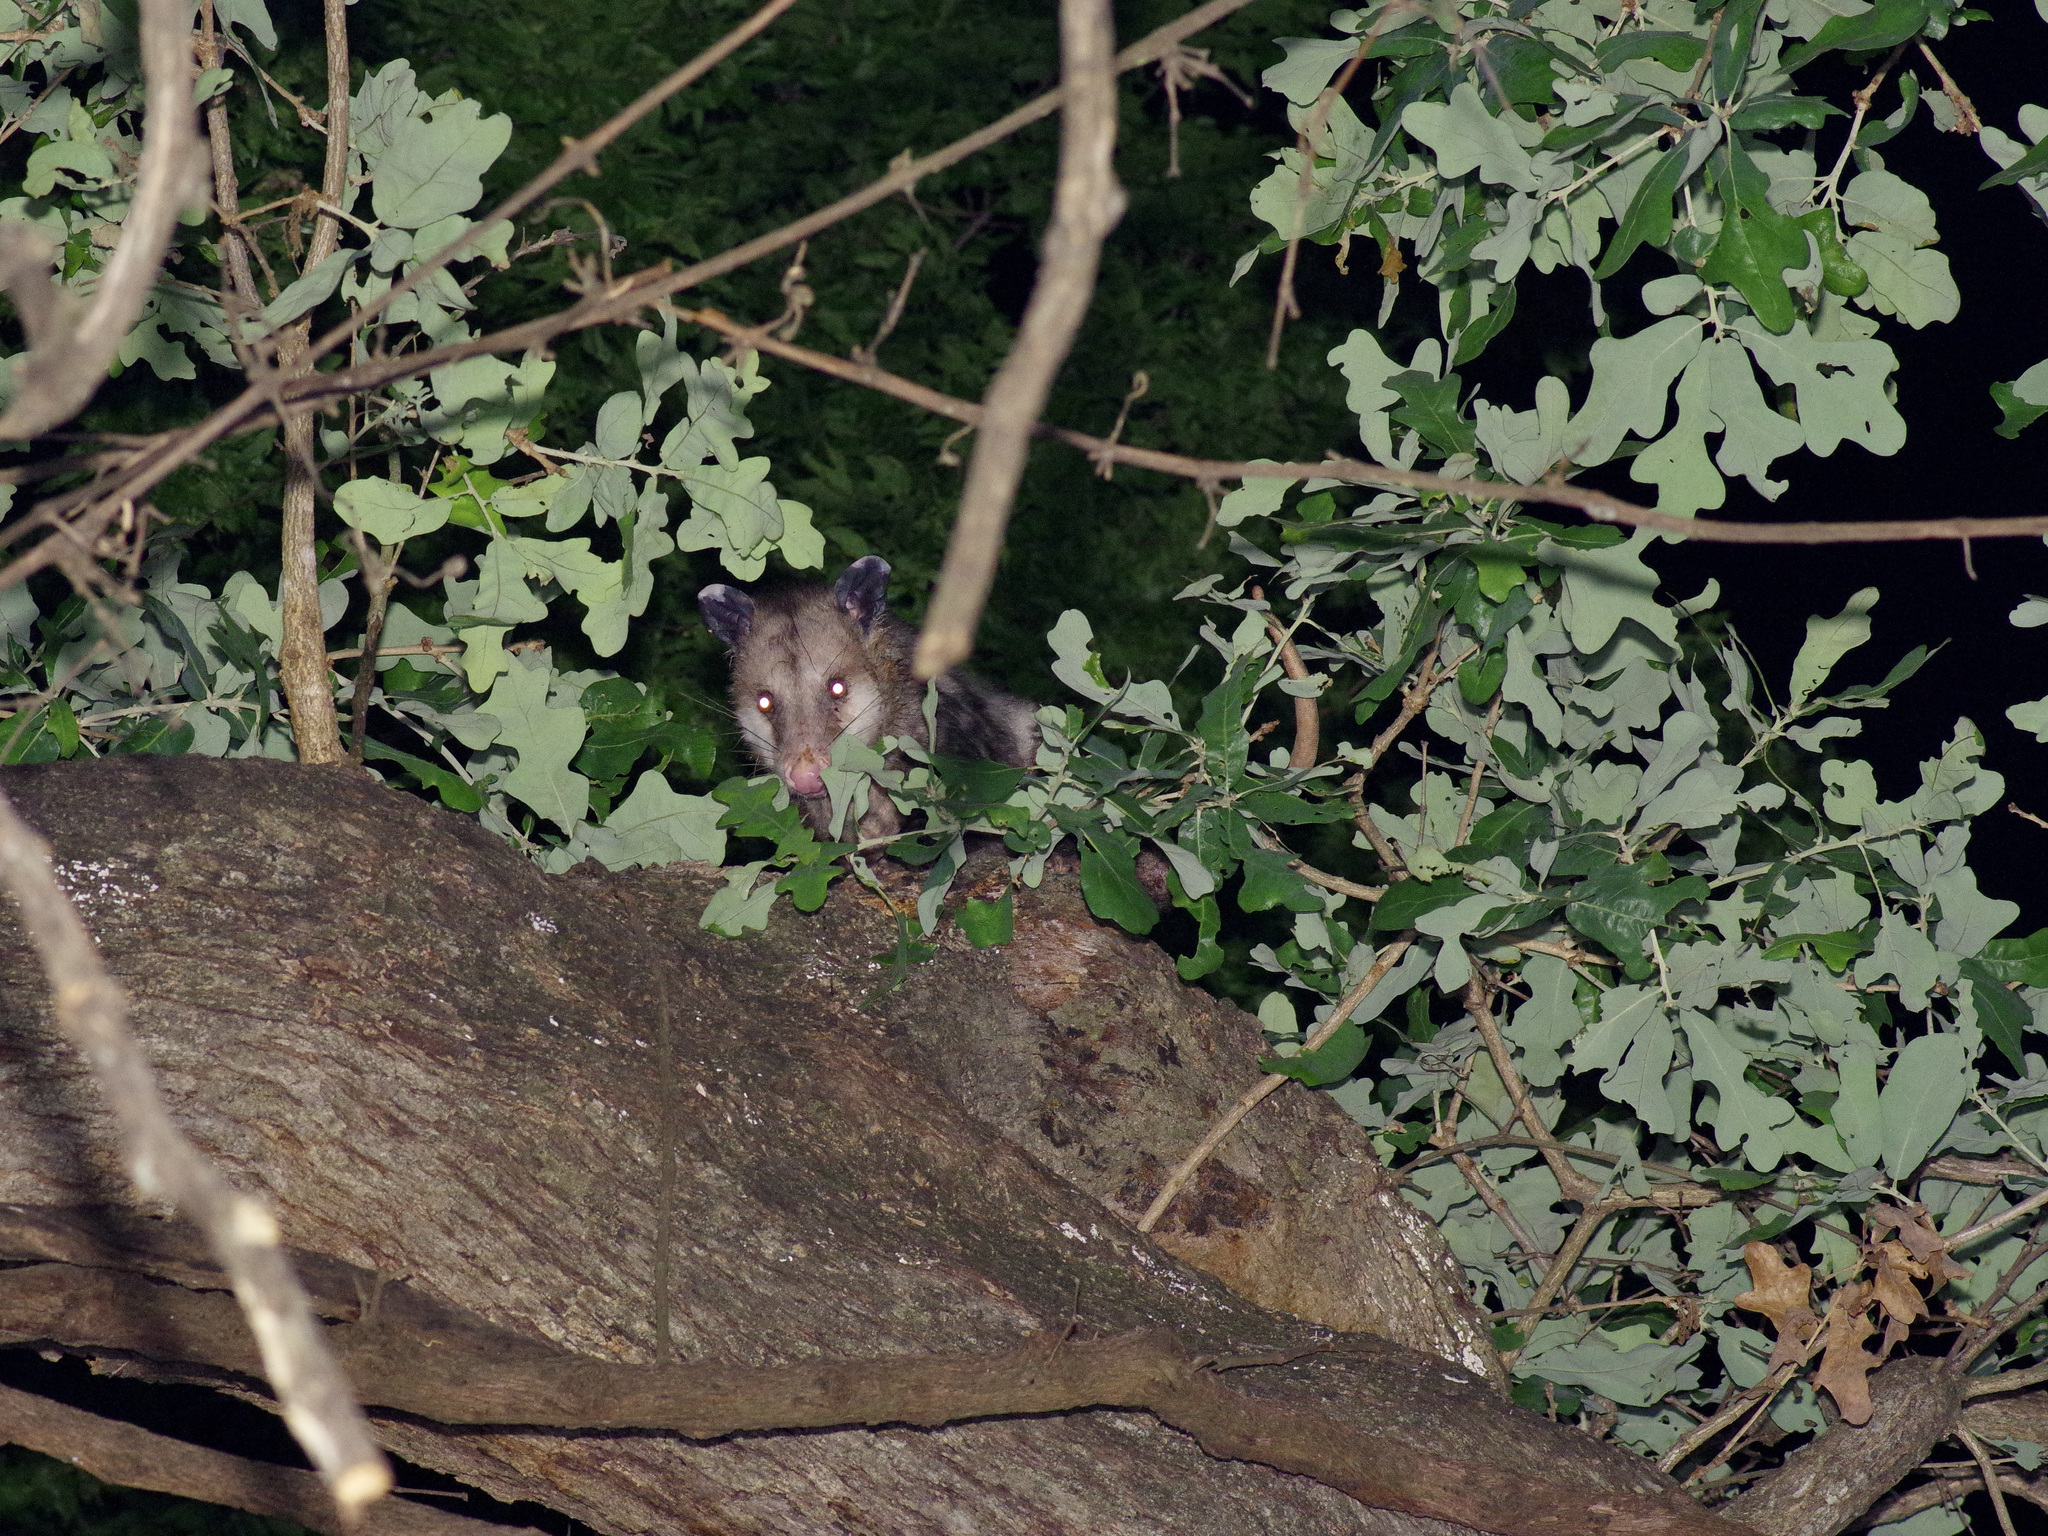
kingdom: Animalia
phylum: Chordata
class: Mammalia
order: Didelphimorphia
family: Didelphidae
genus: Didelphis
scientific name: Didelphis virginiana
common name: Virginia opossum
